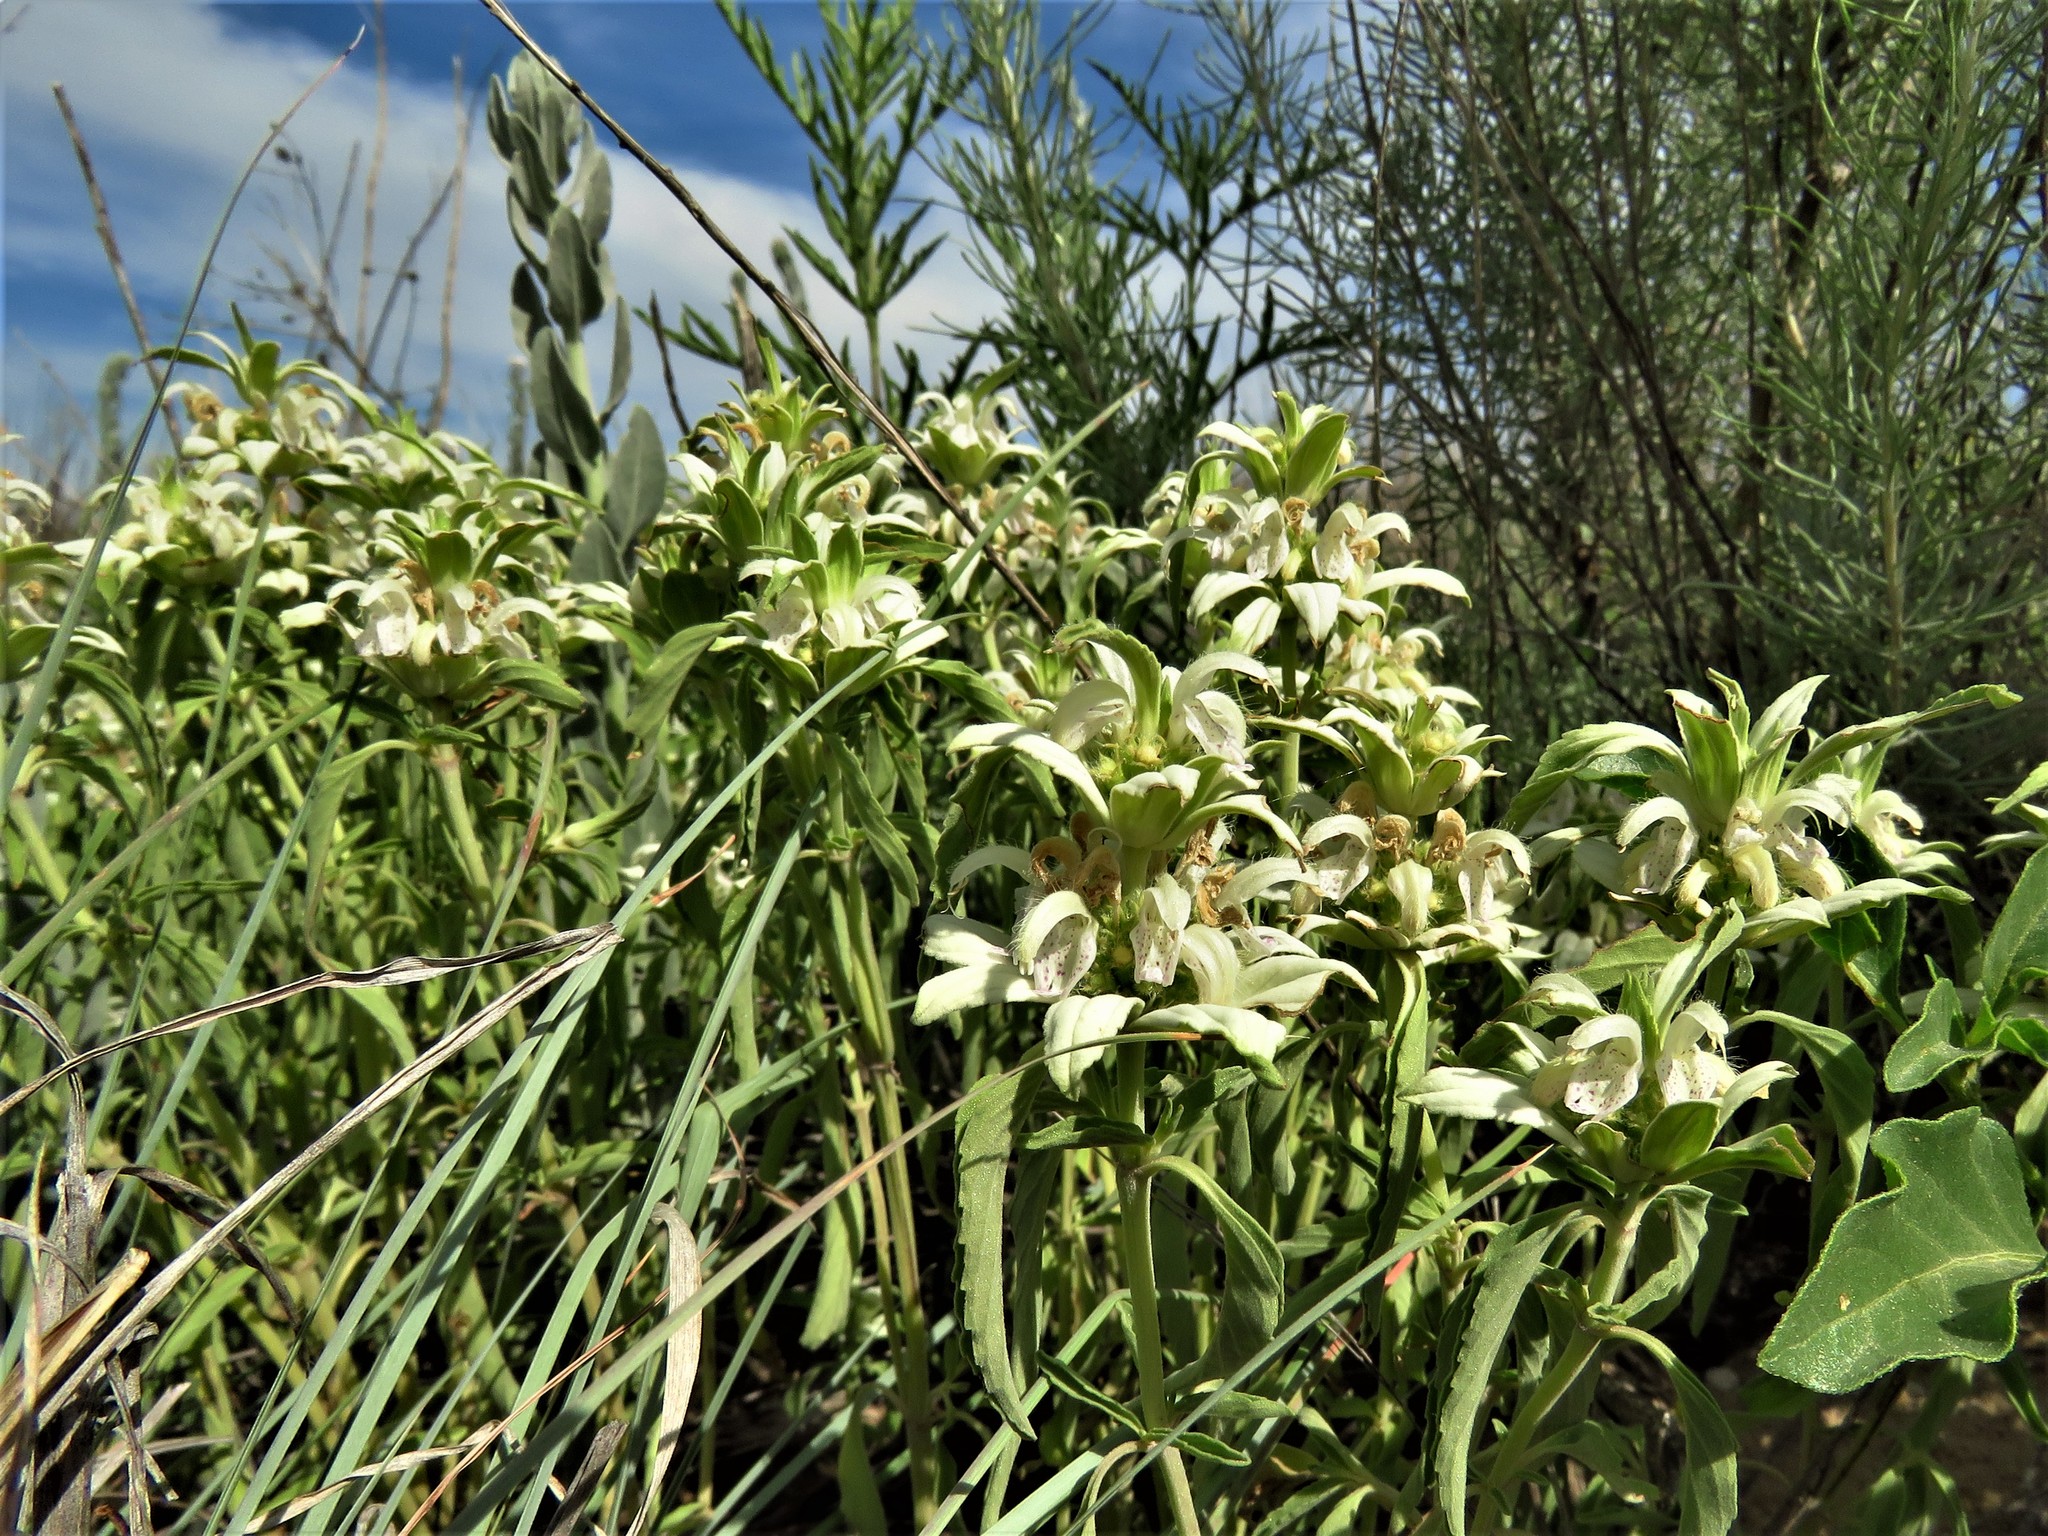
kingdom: Plantae
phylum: Tracheophyta
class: Magnoliopsida
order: Lamiales
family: Lamiaceae
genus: Monarda
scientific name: Monarda punctata
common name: Dotted monarda
